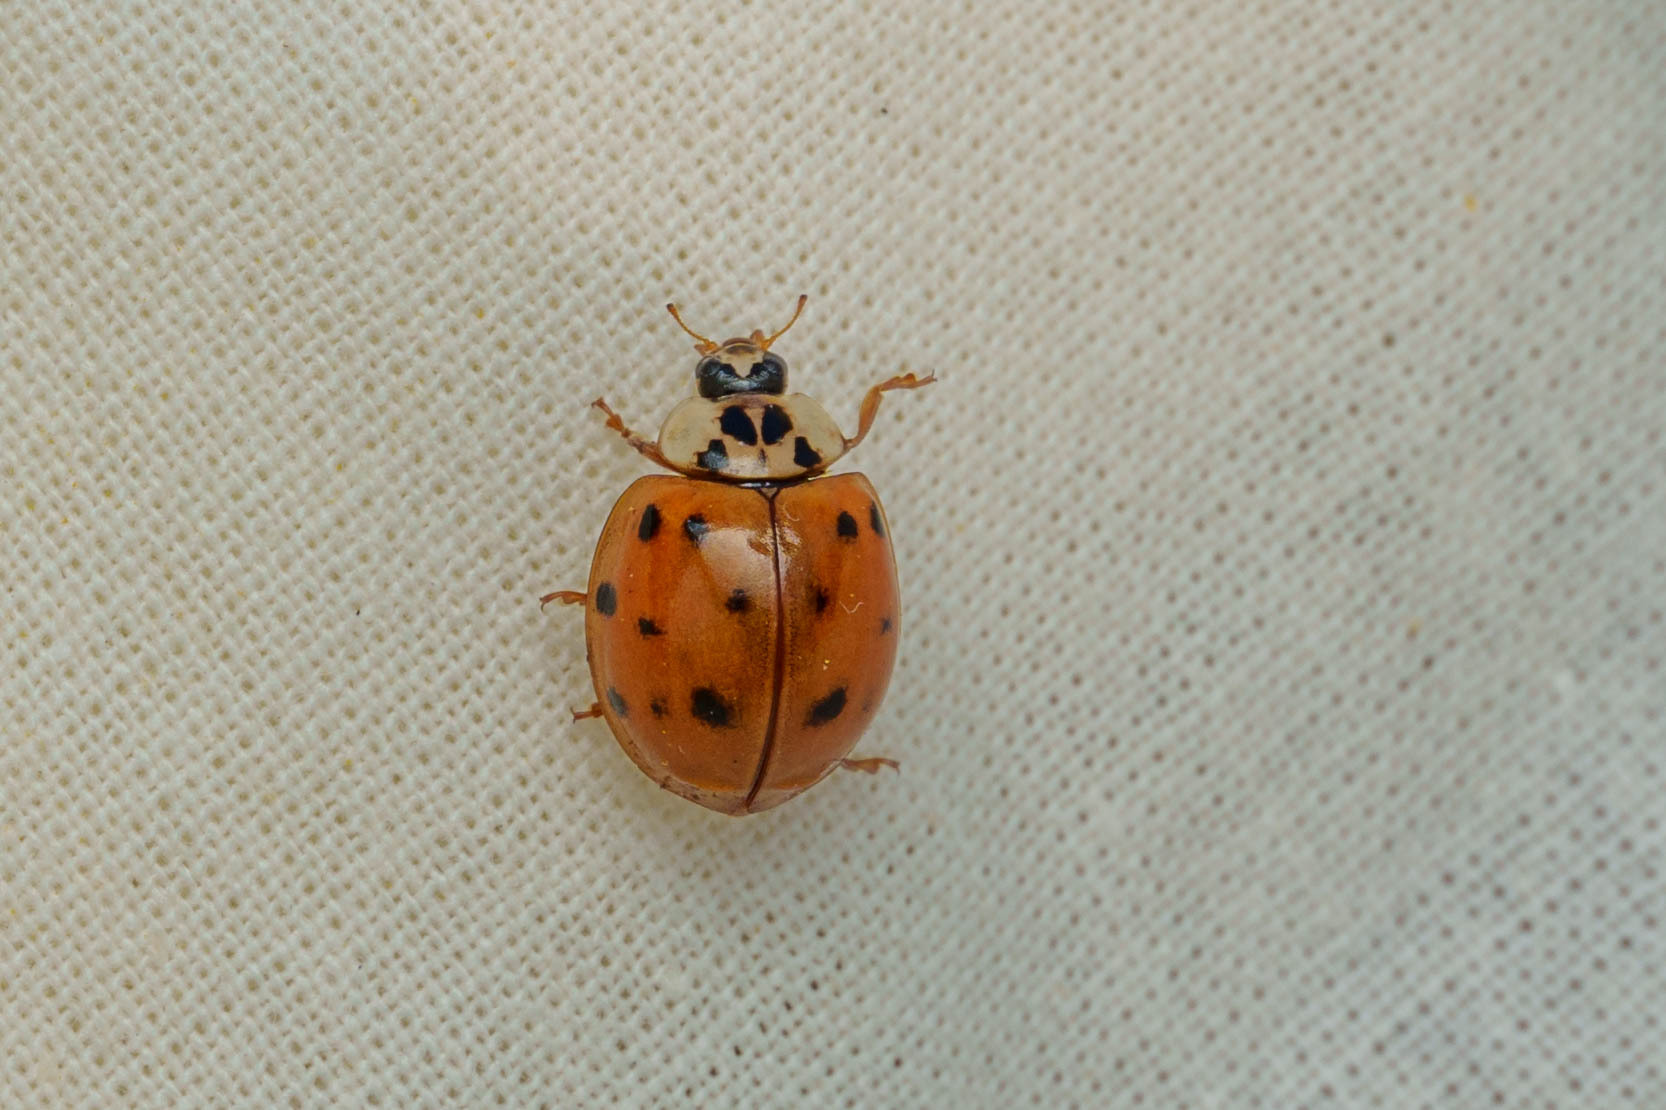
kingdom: Animalia
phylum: Arthropoda
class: Insecta
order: Coleoptera
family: Coccinellidae
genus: Harmonia
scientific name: Harmonia axyridis
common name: Harlequin ladybird
